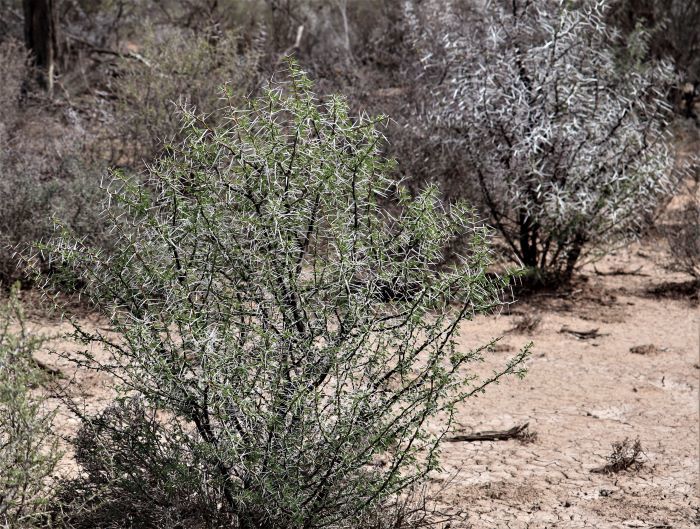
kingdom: Plantae
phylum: Tracheophyta
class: Magnoliopsida
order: Fabales
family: Fabaceae
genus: Vachellia
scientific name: Vachellia karroo
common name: Sweet thorn
